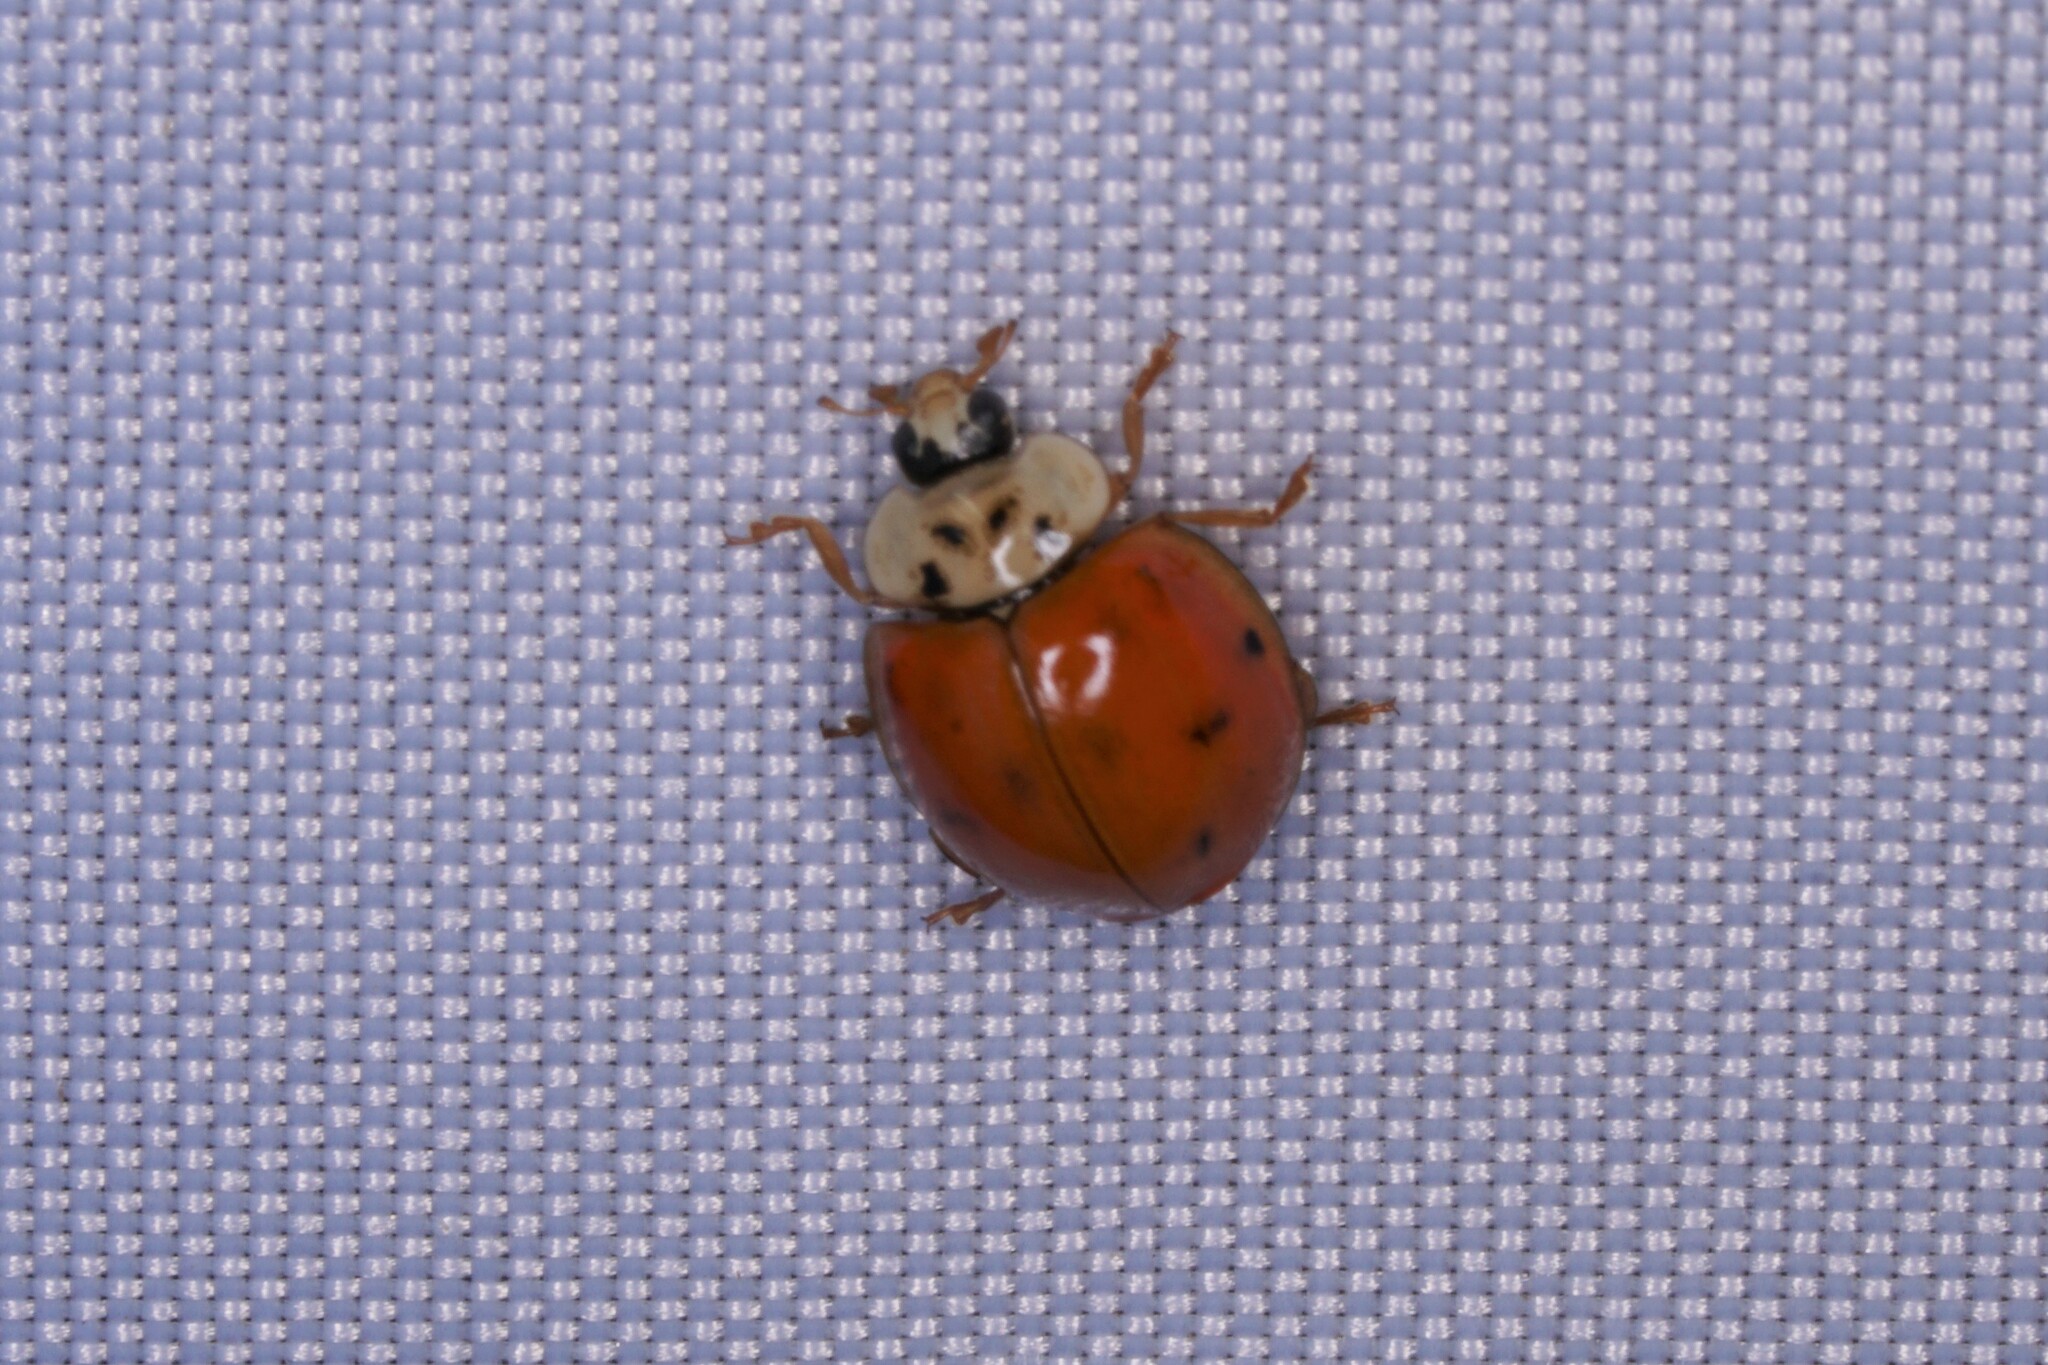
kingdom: Animalia
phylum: Arthropoda
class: Insecta
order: Coleoptera
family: Coccinellidae
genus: Harmonia
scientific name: Harmonia axyridis
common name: Harlequin ladybird
